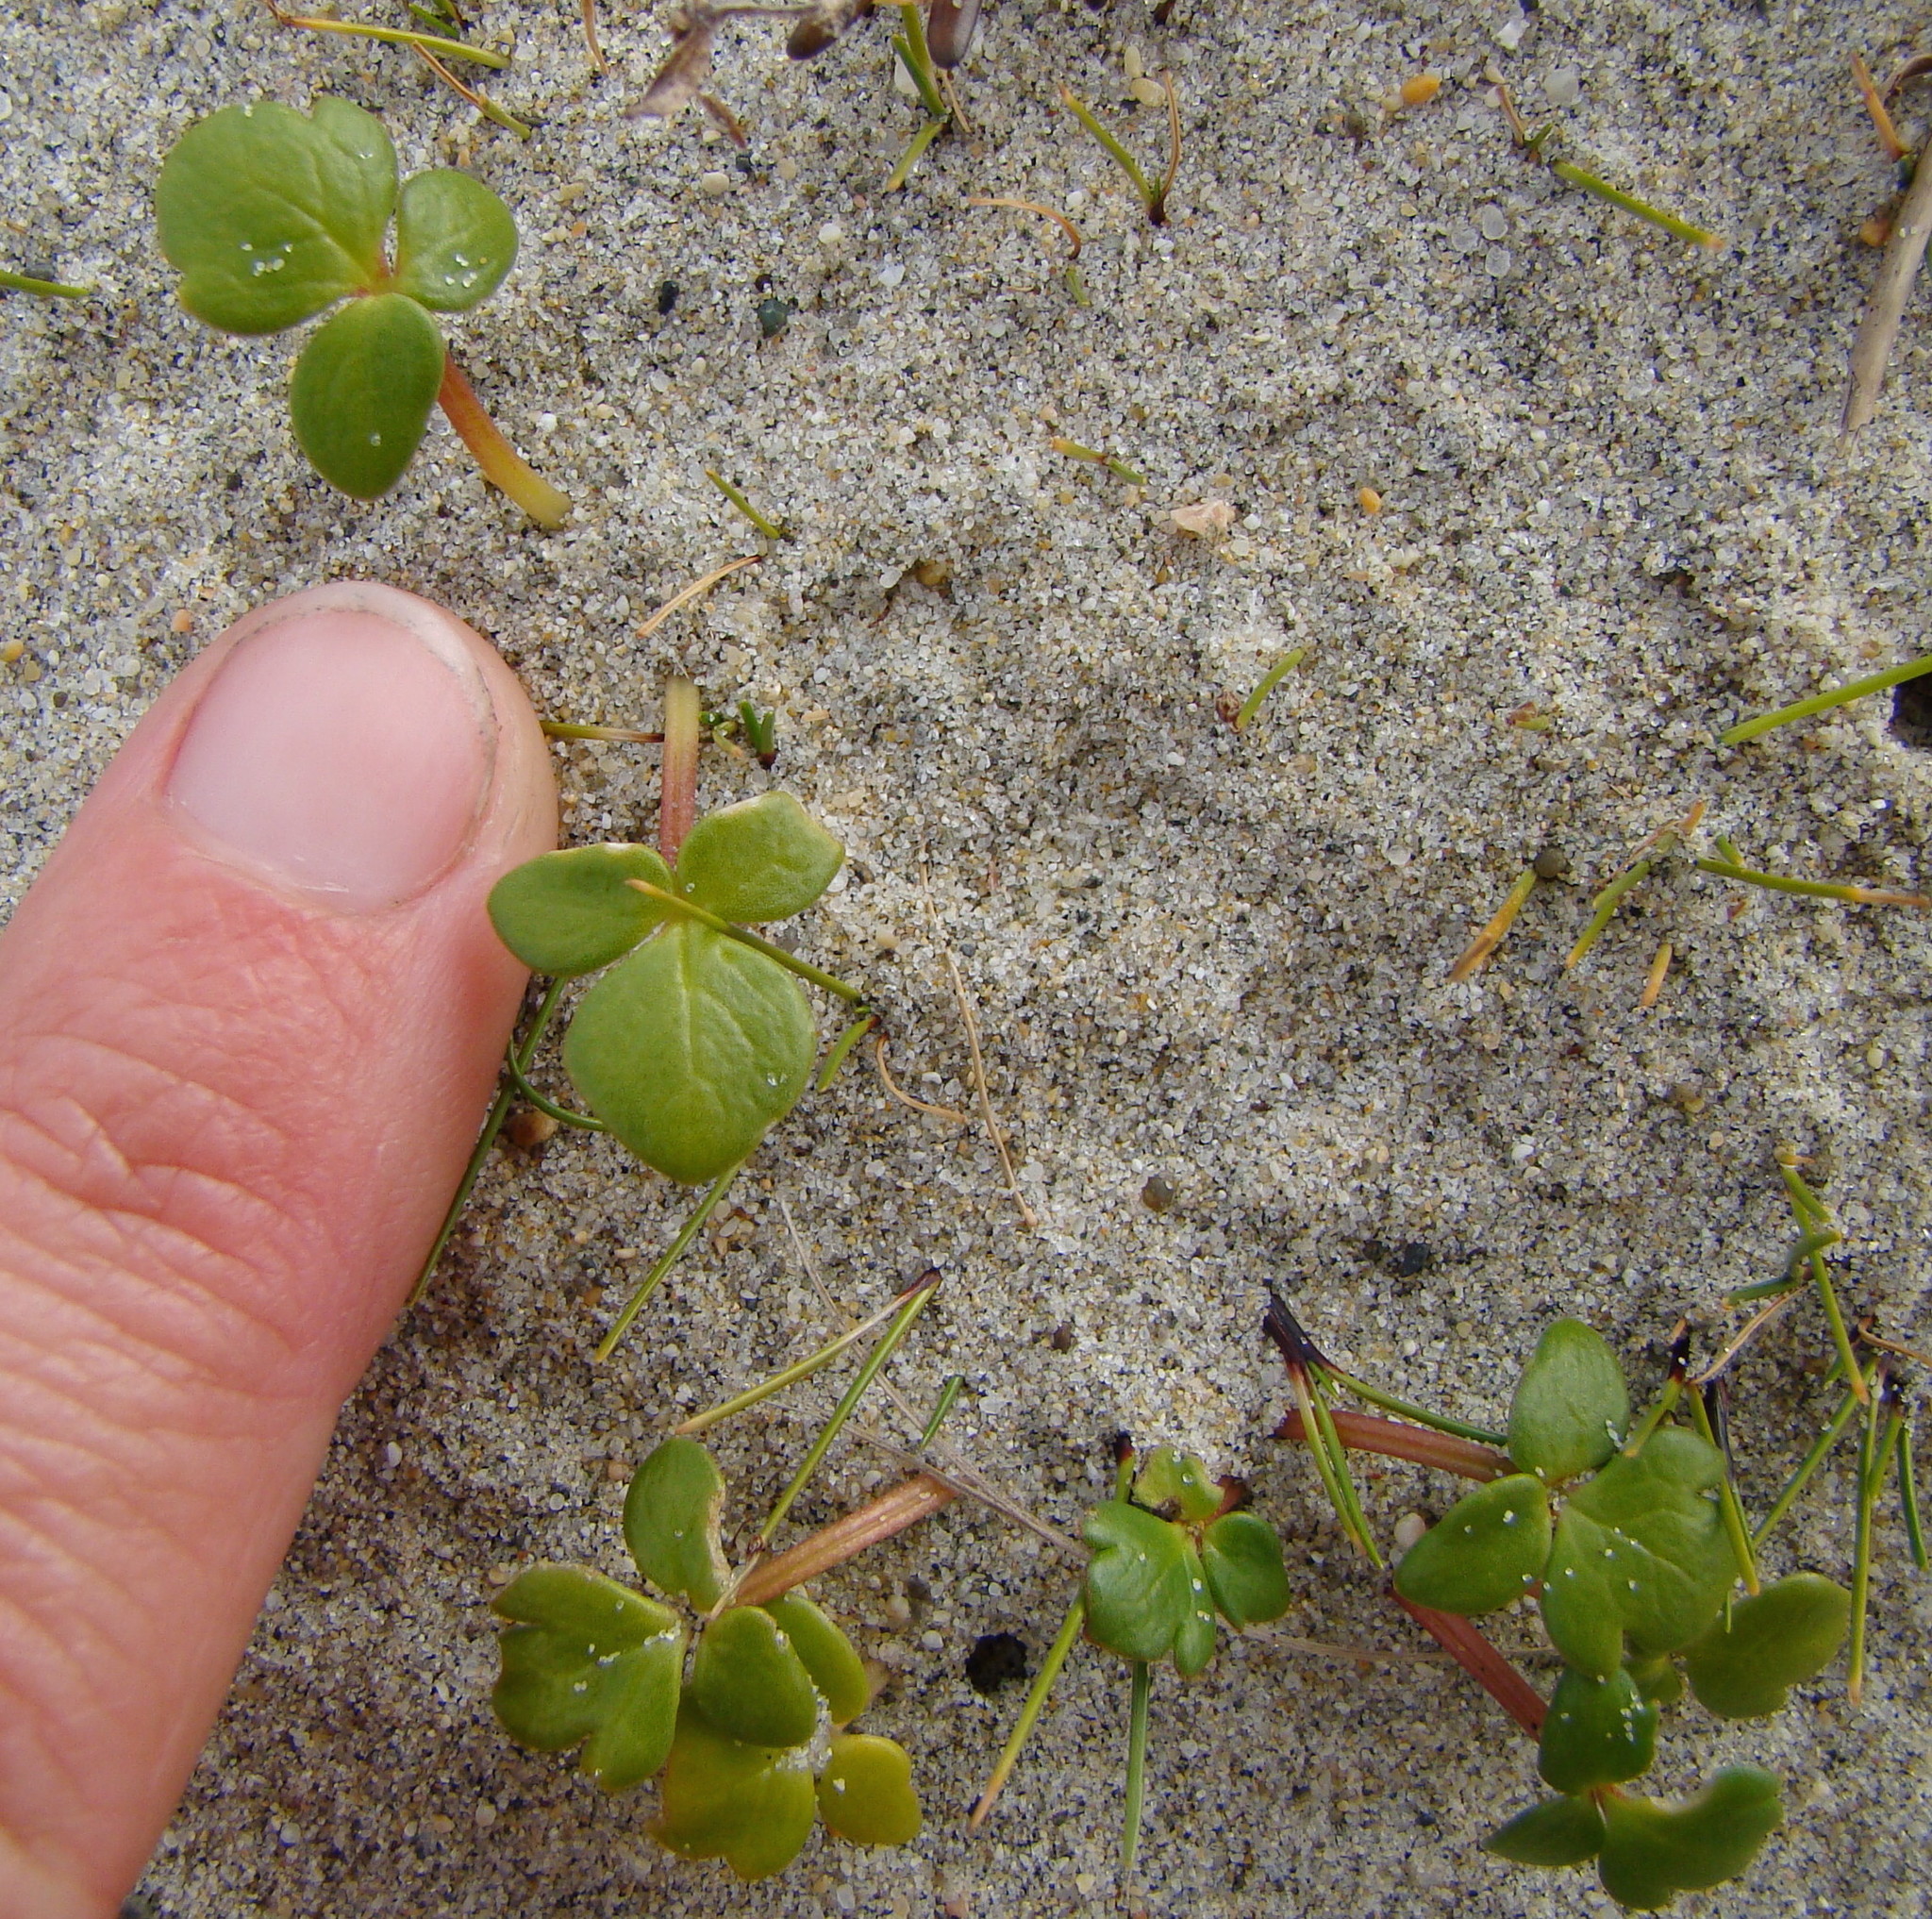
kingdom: Plantae
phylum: Tracheophyta
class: Magnoliopsida
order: Ranunculales
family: Ranunculaceae
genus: Ranunculus
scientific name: Ranunculus acaulis
